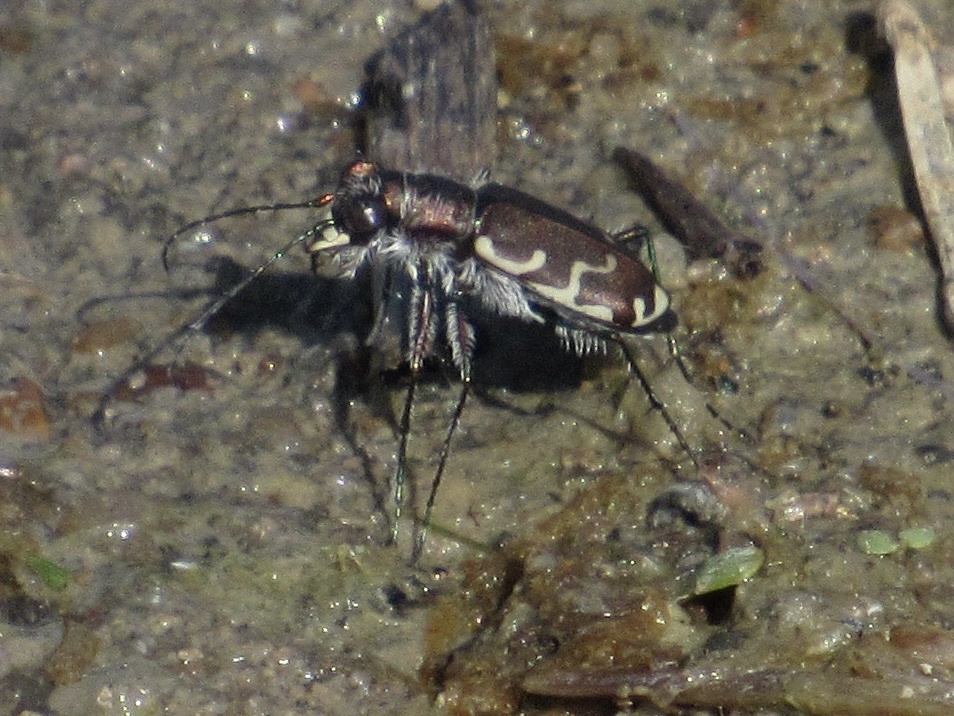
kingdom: Animalia
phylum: Arthropoda
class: Insecta
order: Coleoptera
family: Carabidae
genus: Cicindela
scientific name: Cicindela repanda
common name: Bronzed tiger beetle
